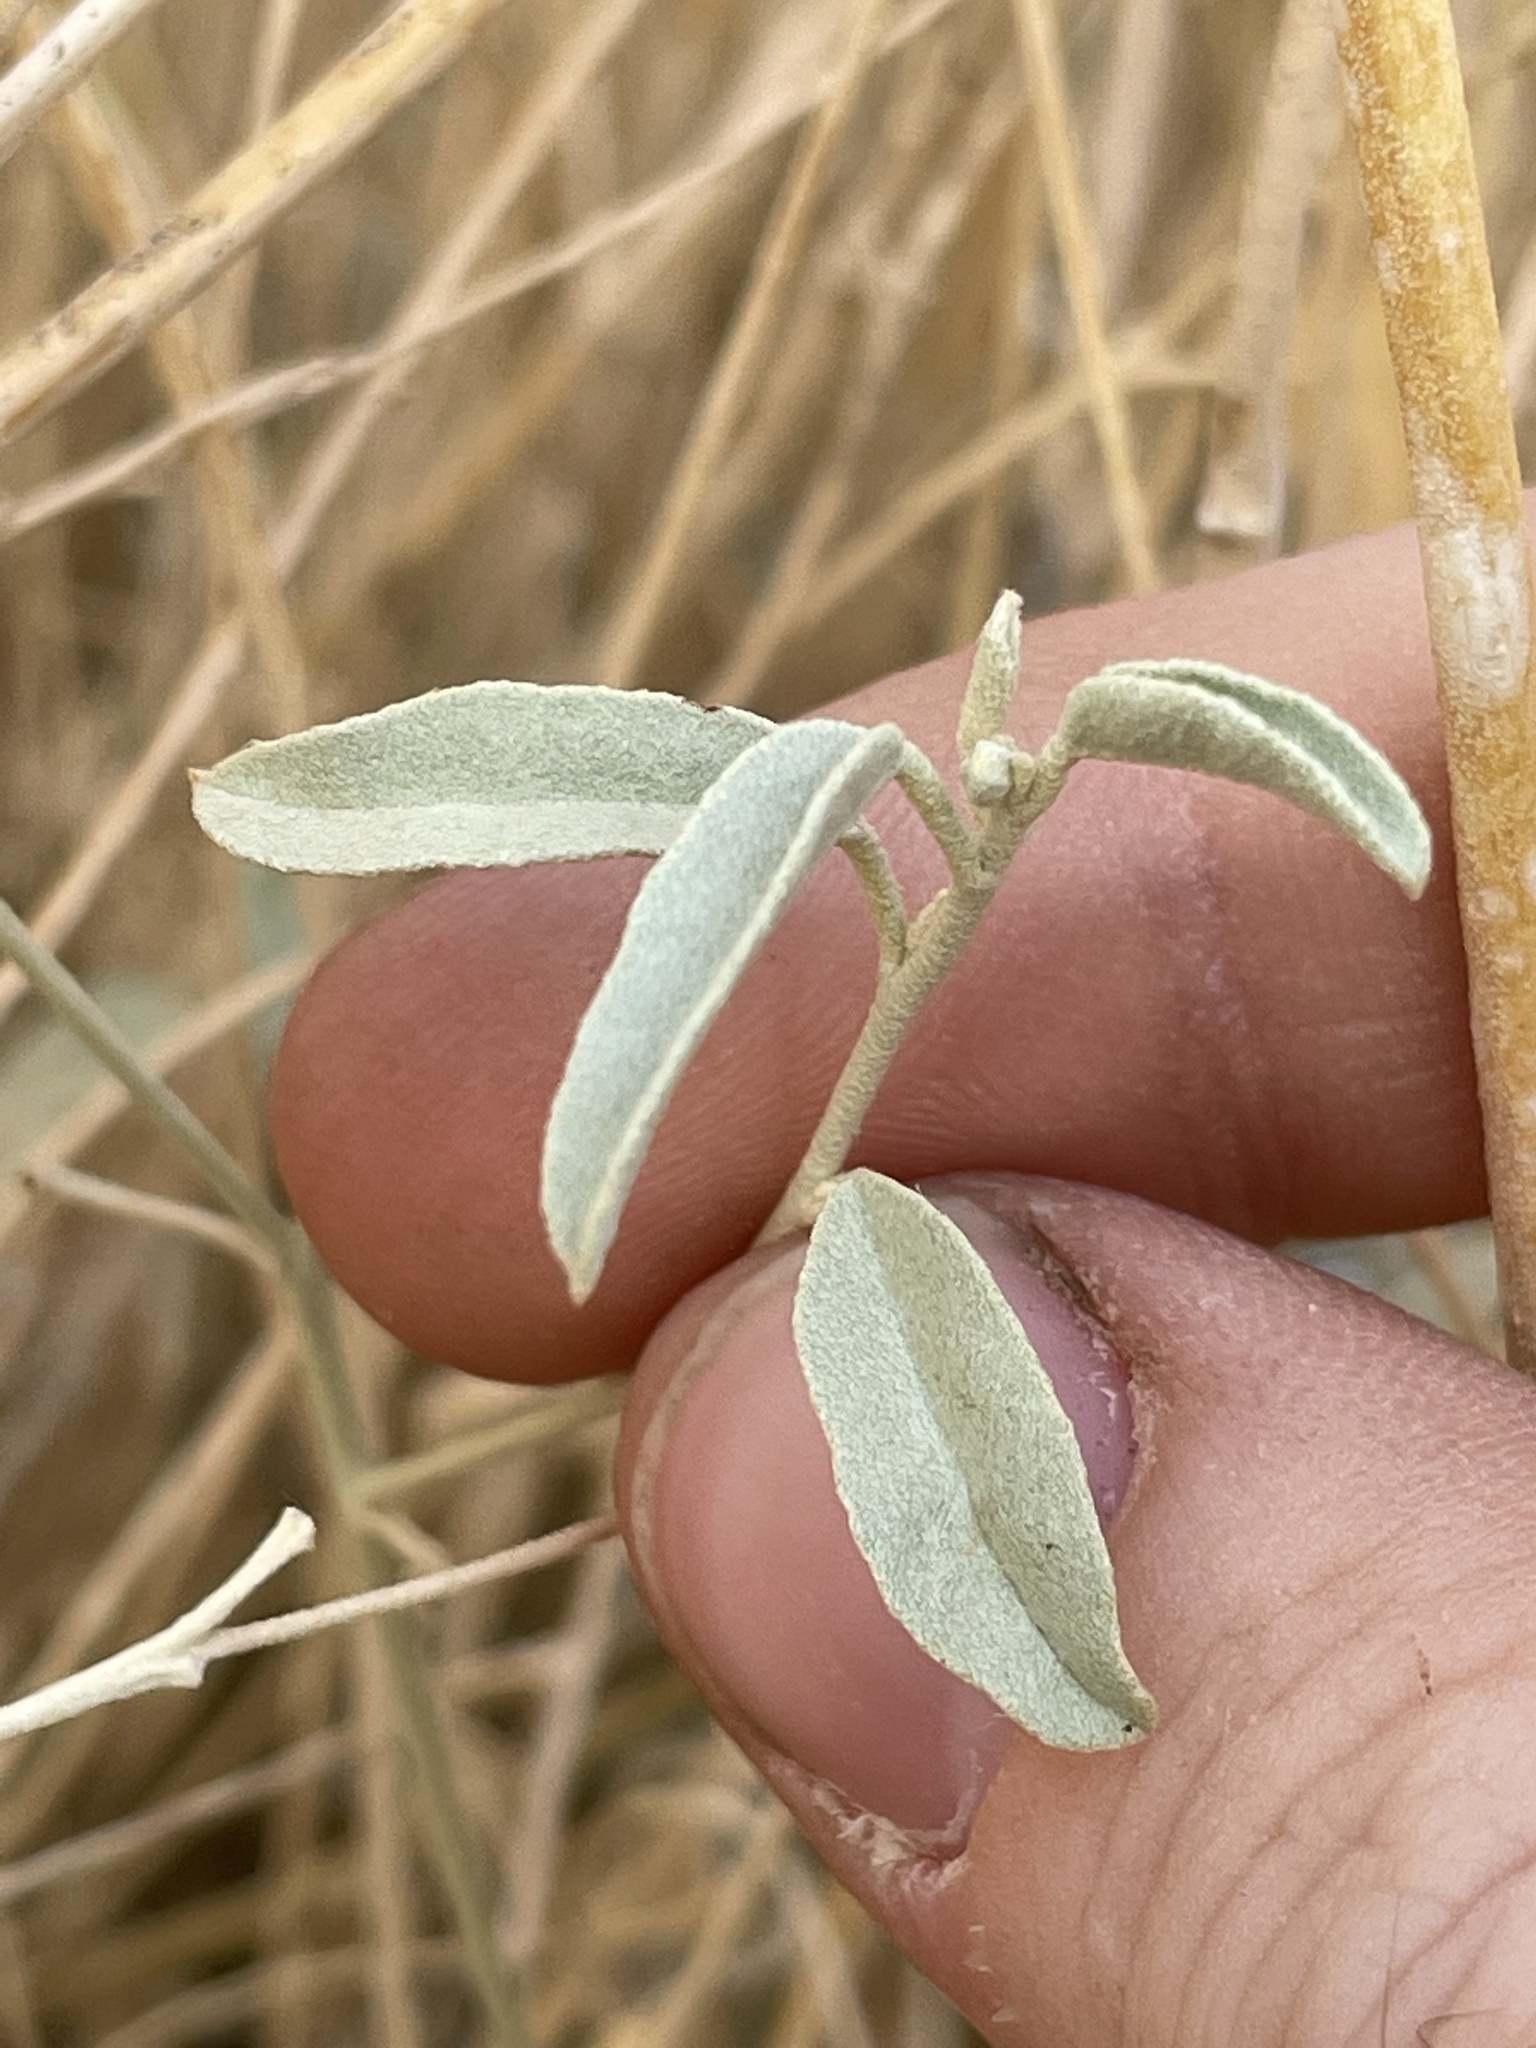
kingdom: Plantae
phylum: Tracheophyta
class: Magnoliopsida
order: Malpighiales
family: Euphorbiaceae
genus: Croton
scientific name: Croton californicus
